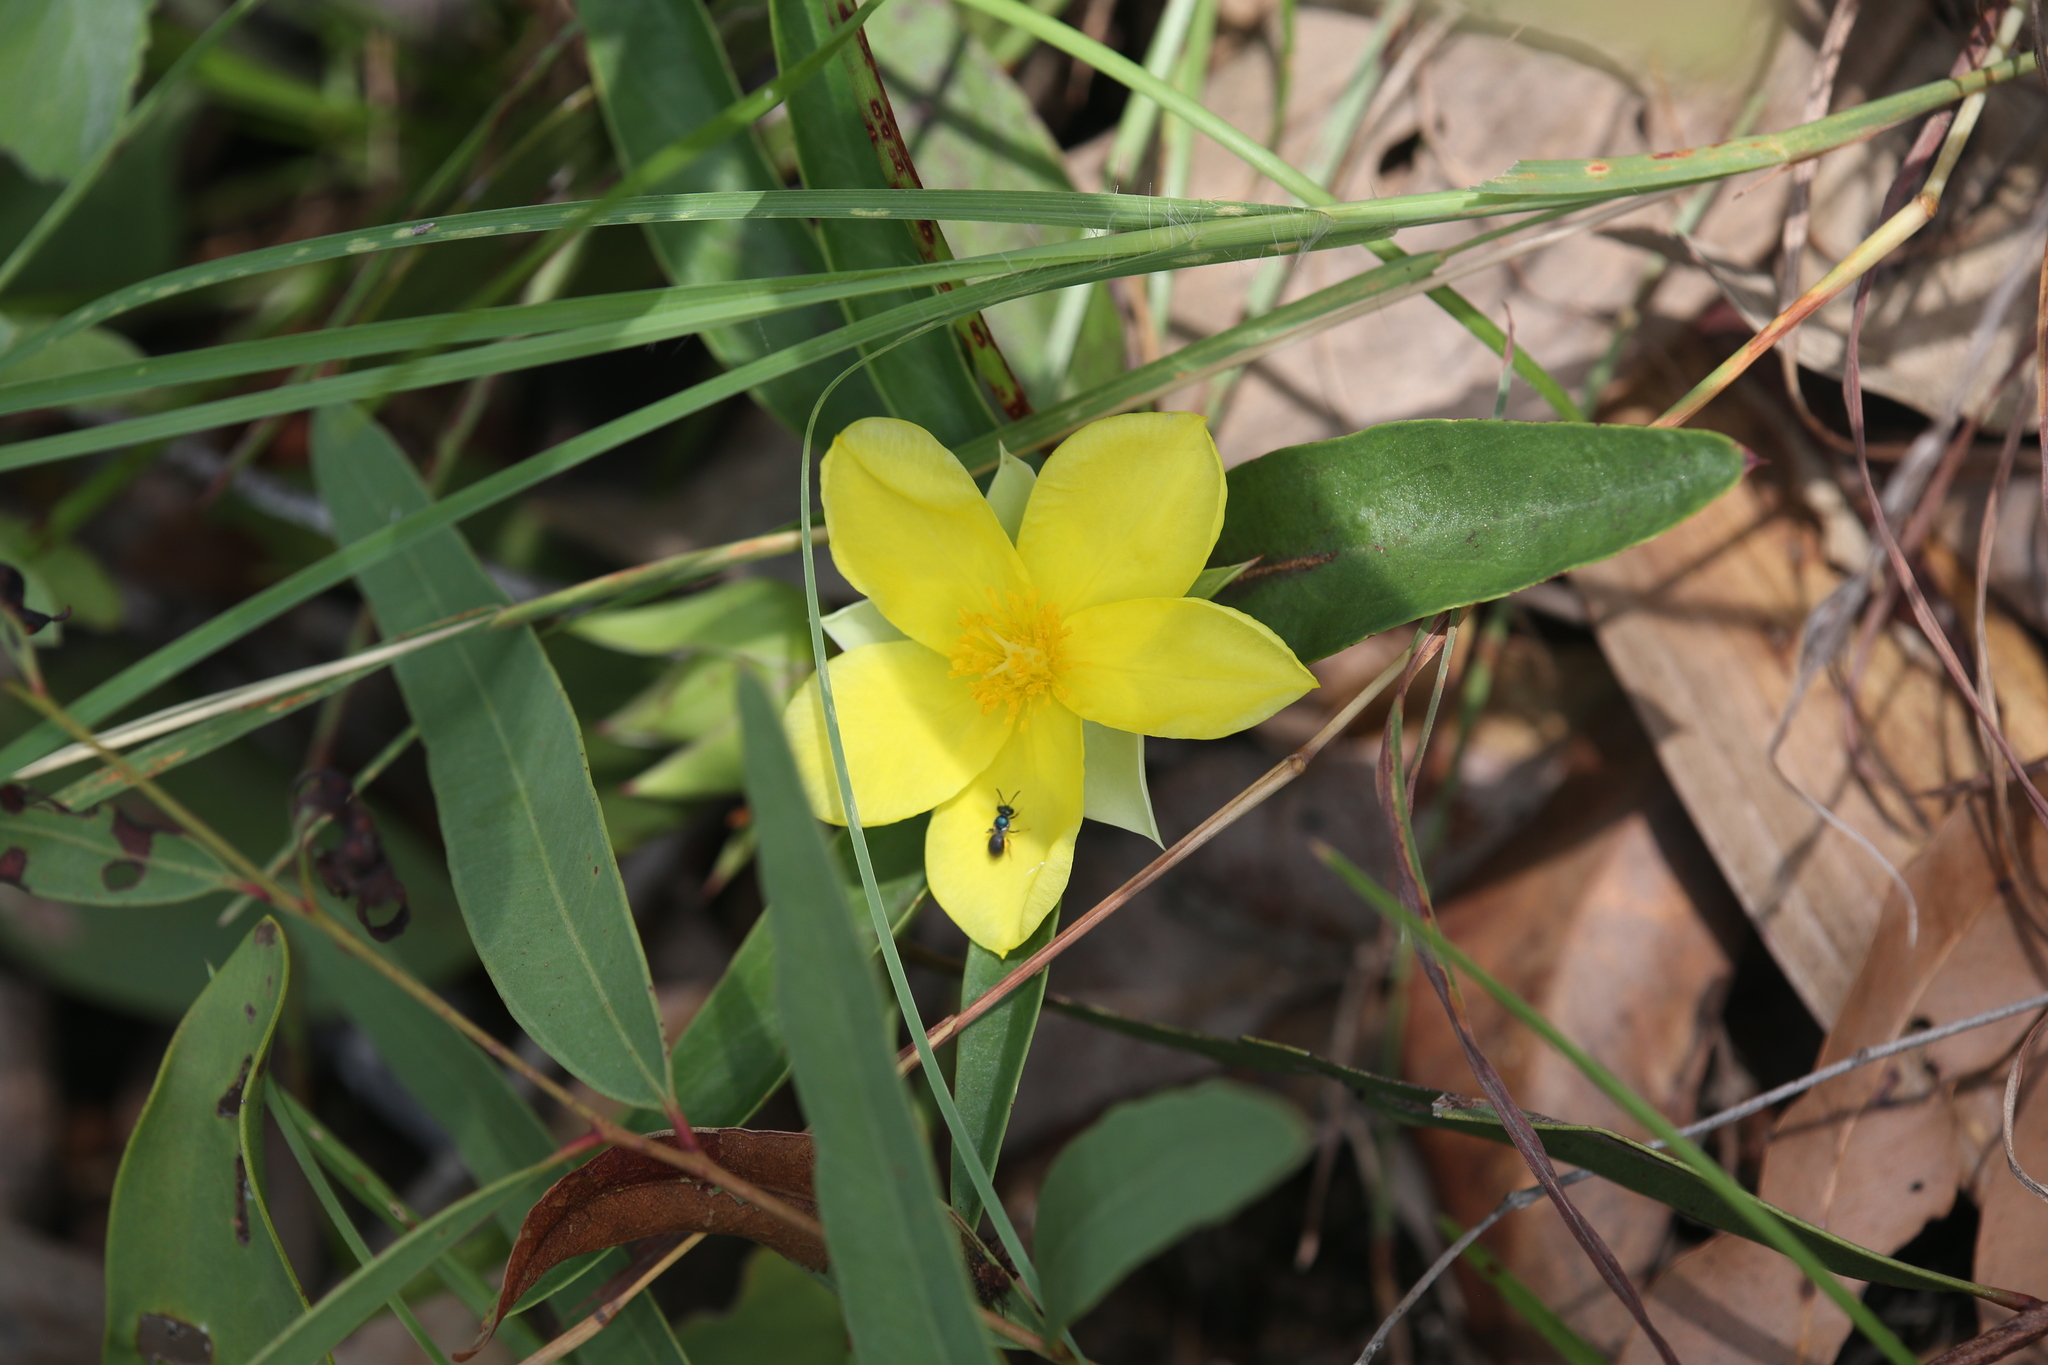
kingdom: Plantae
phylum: Tracheophyta
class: Magnoliopsida
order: Dilleniales
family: Dilleniaceae
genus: Hibbertia
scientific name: Hibbertia longifolia
